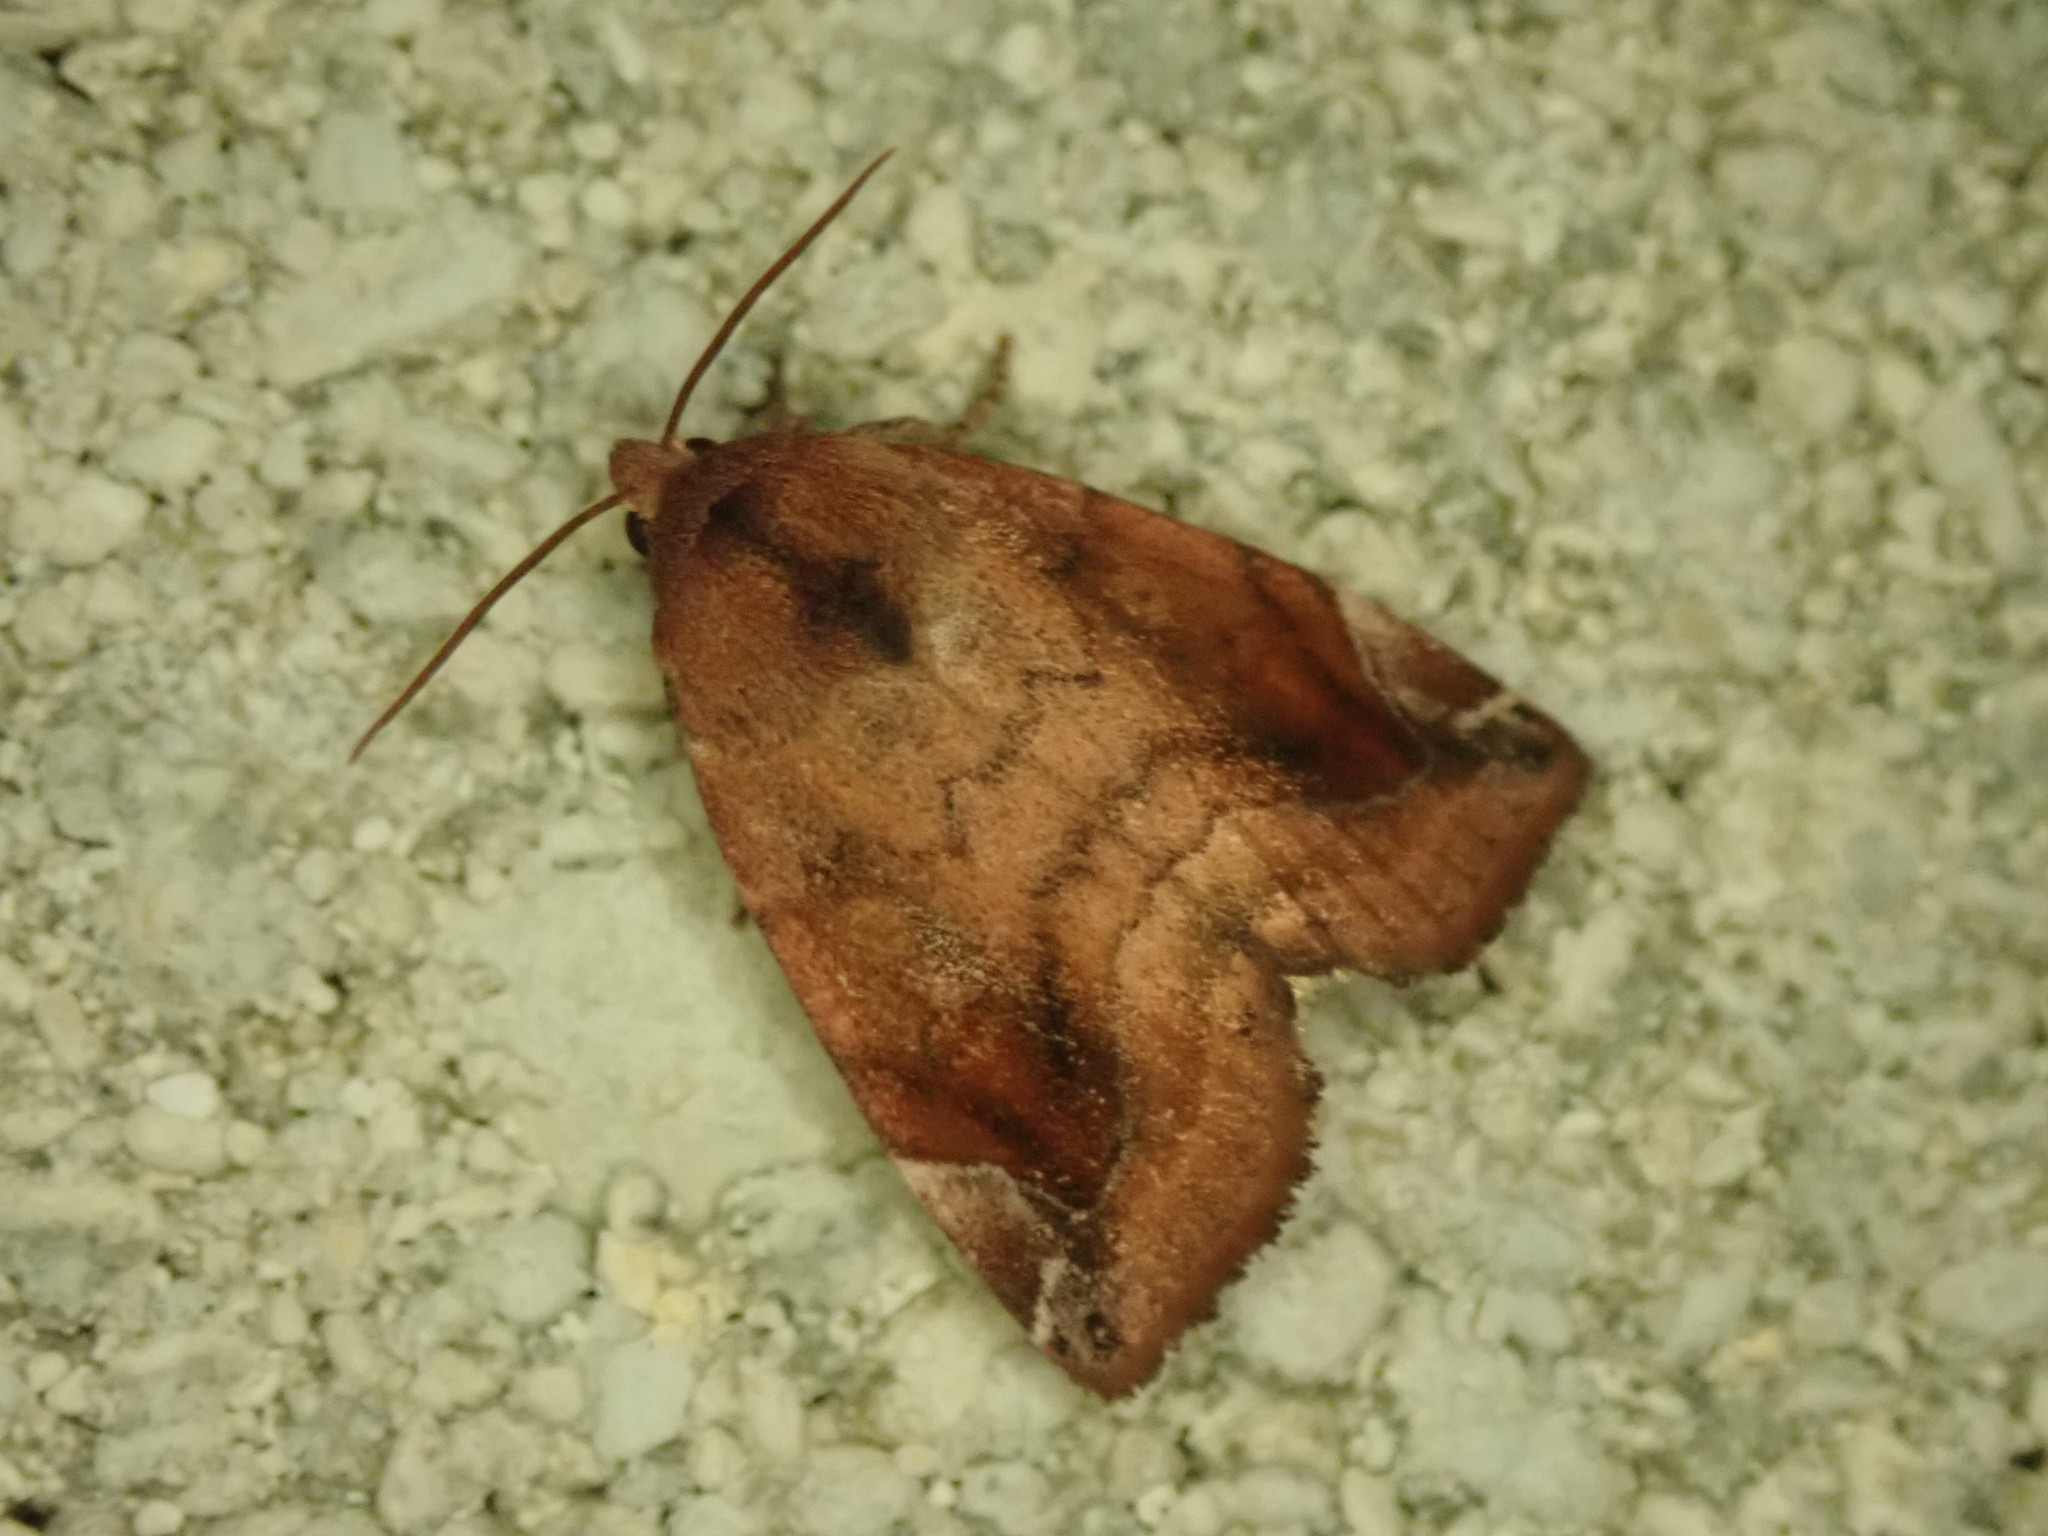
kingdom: Animalia
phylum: Arthropoda
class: Insecta
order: Lepidoptera
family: Noctuidae
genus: Cosmia
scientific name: Cosmia pyralina
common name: Lunar-spotted pinion
